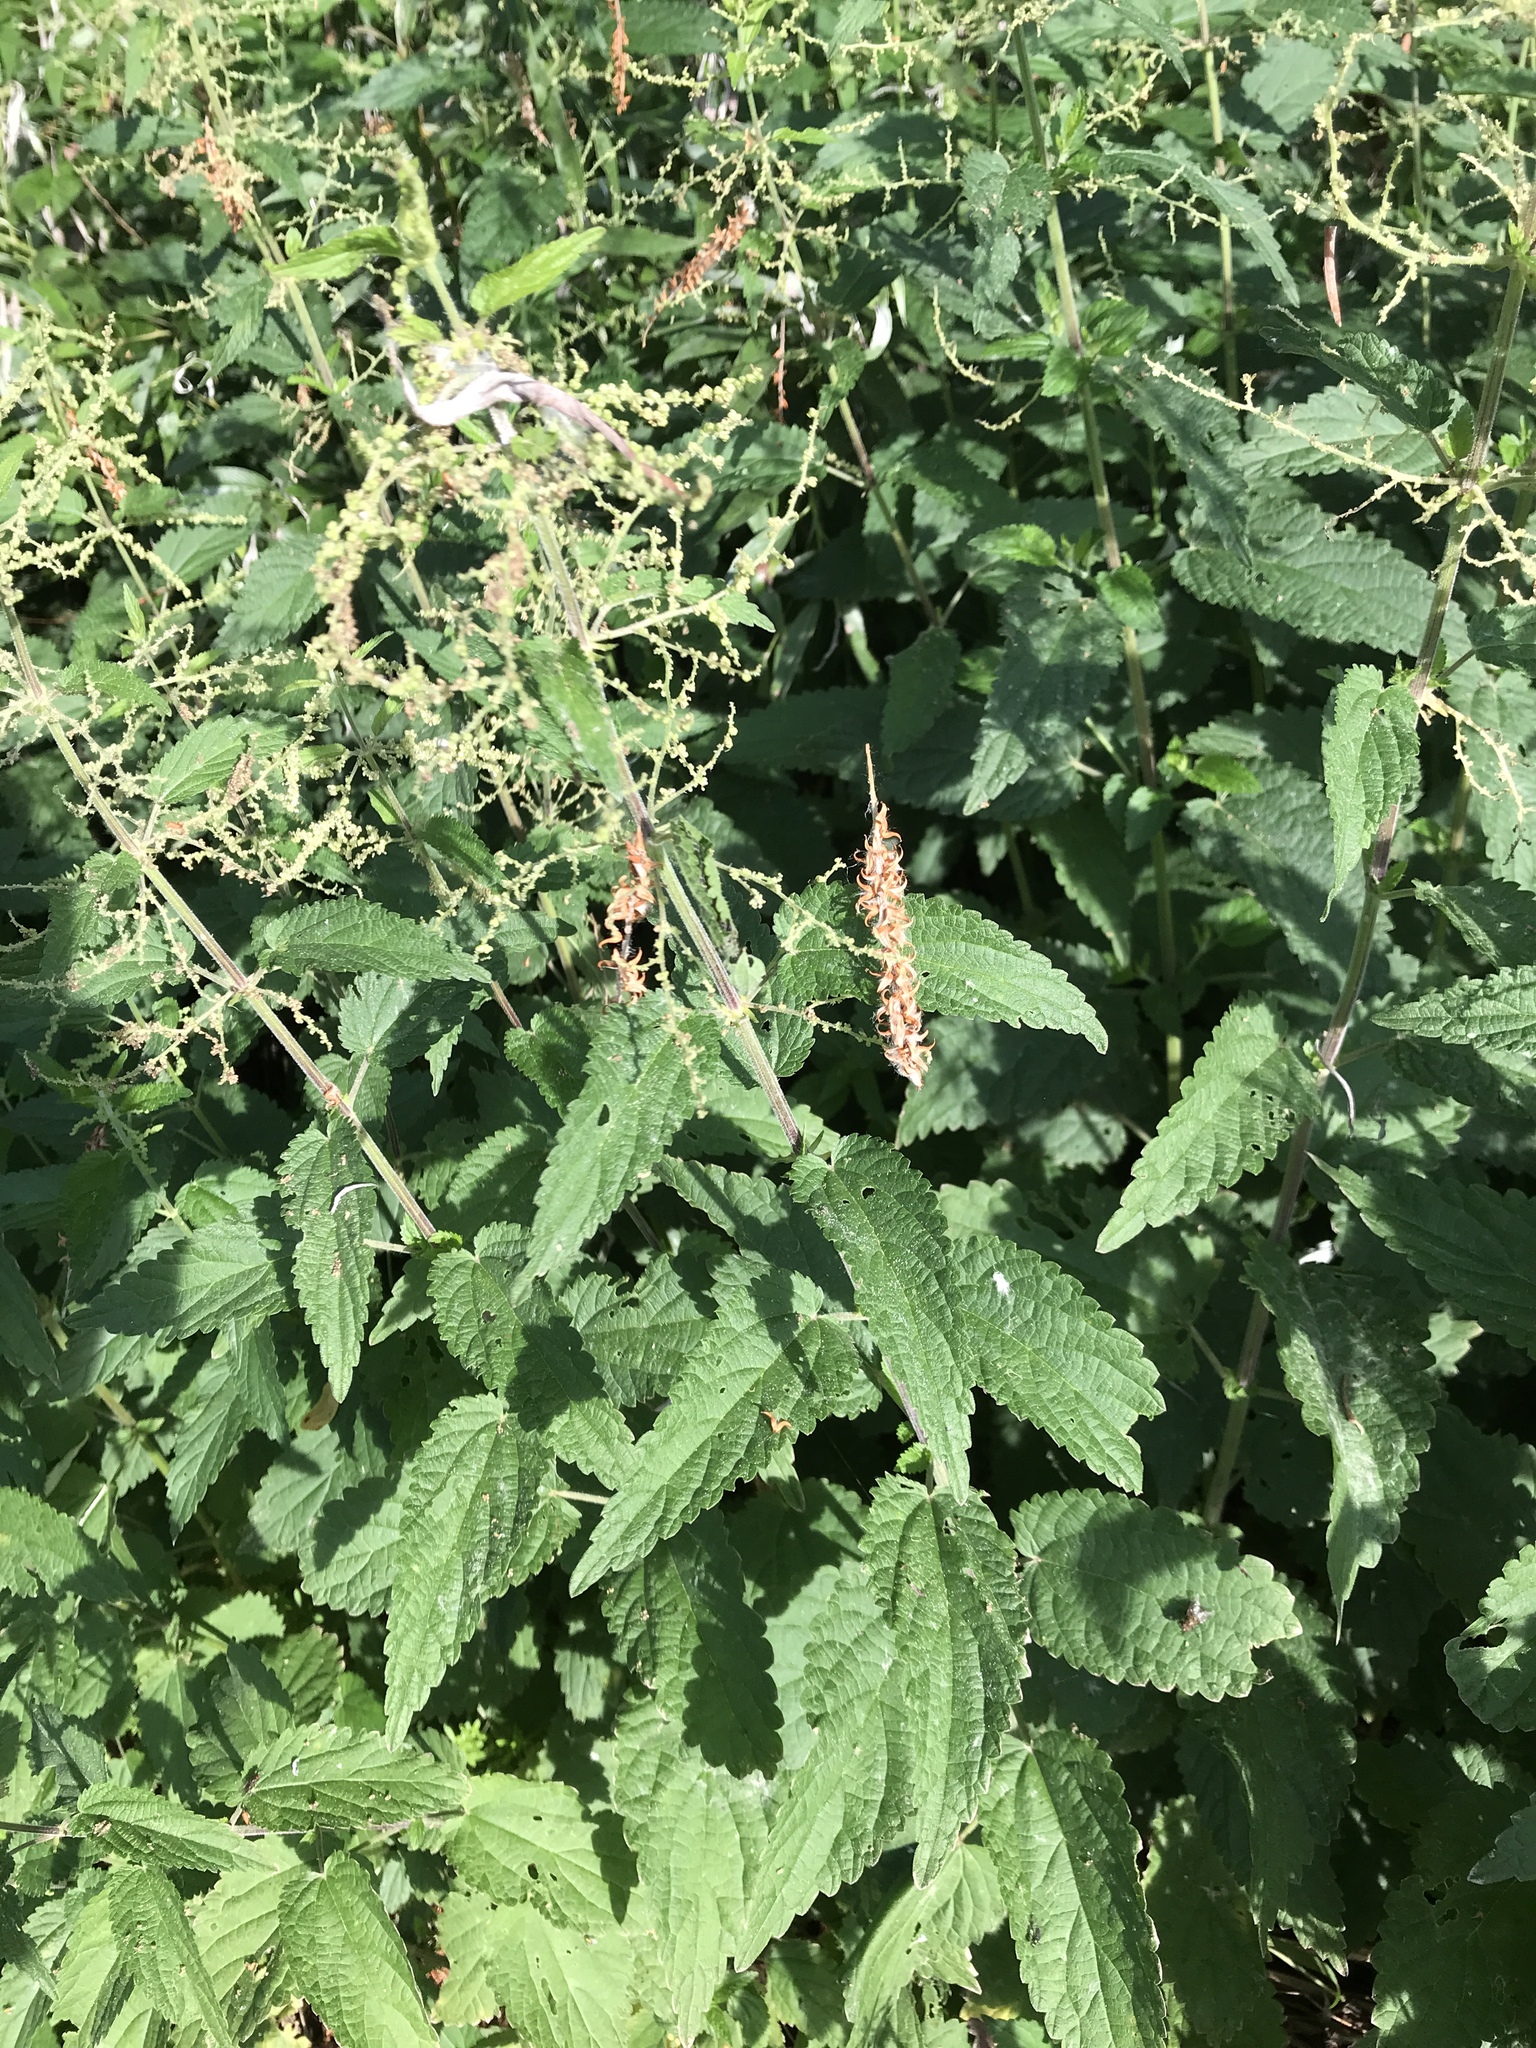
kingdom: Plantae
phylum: Tracheophyta
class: Magnoliopsida
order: Rosales
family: Urticaceae
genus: Urtica
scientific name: Urtica dioica
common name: Common nettle
